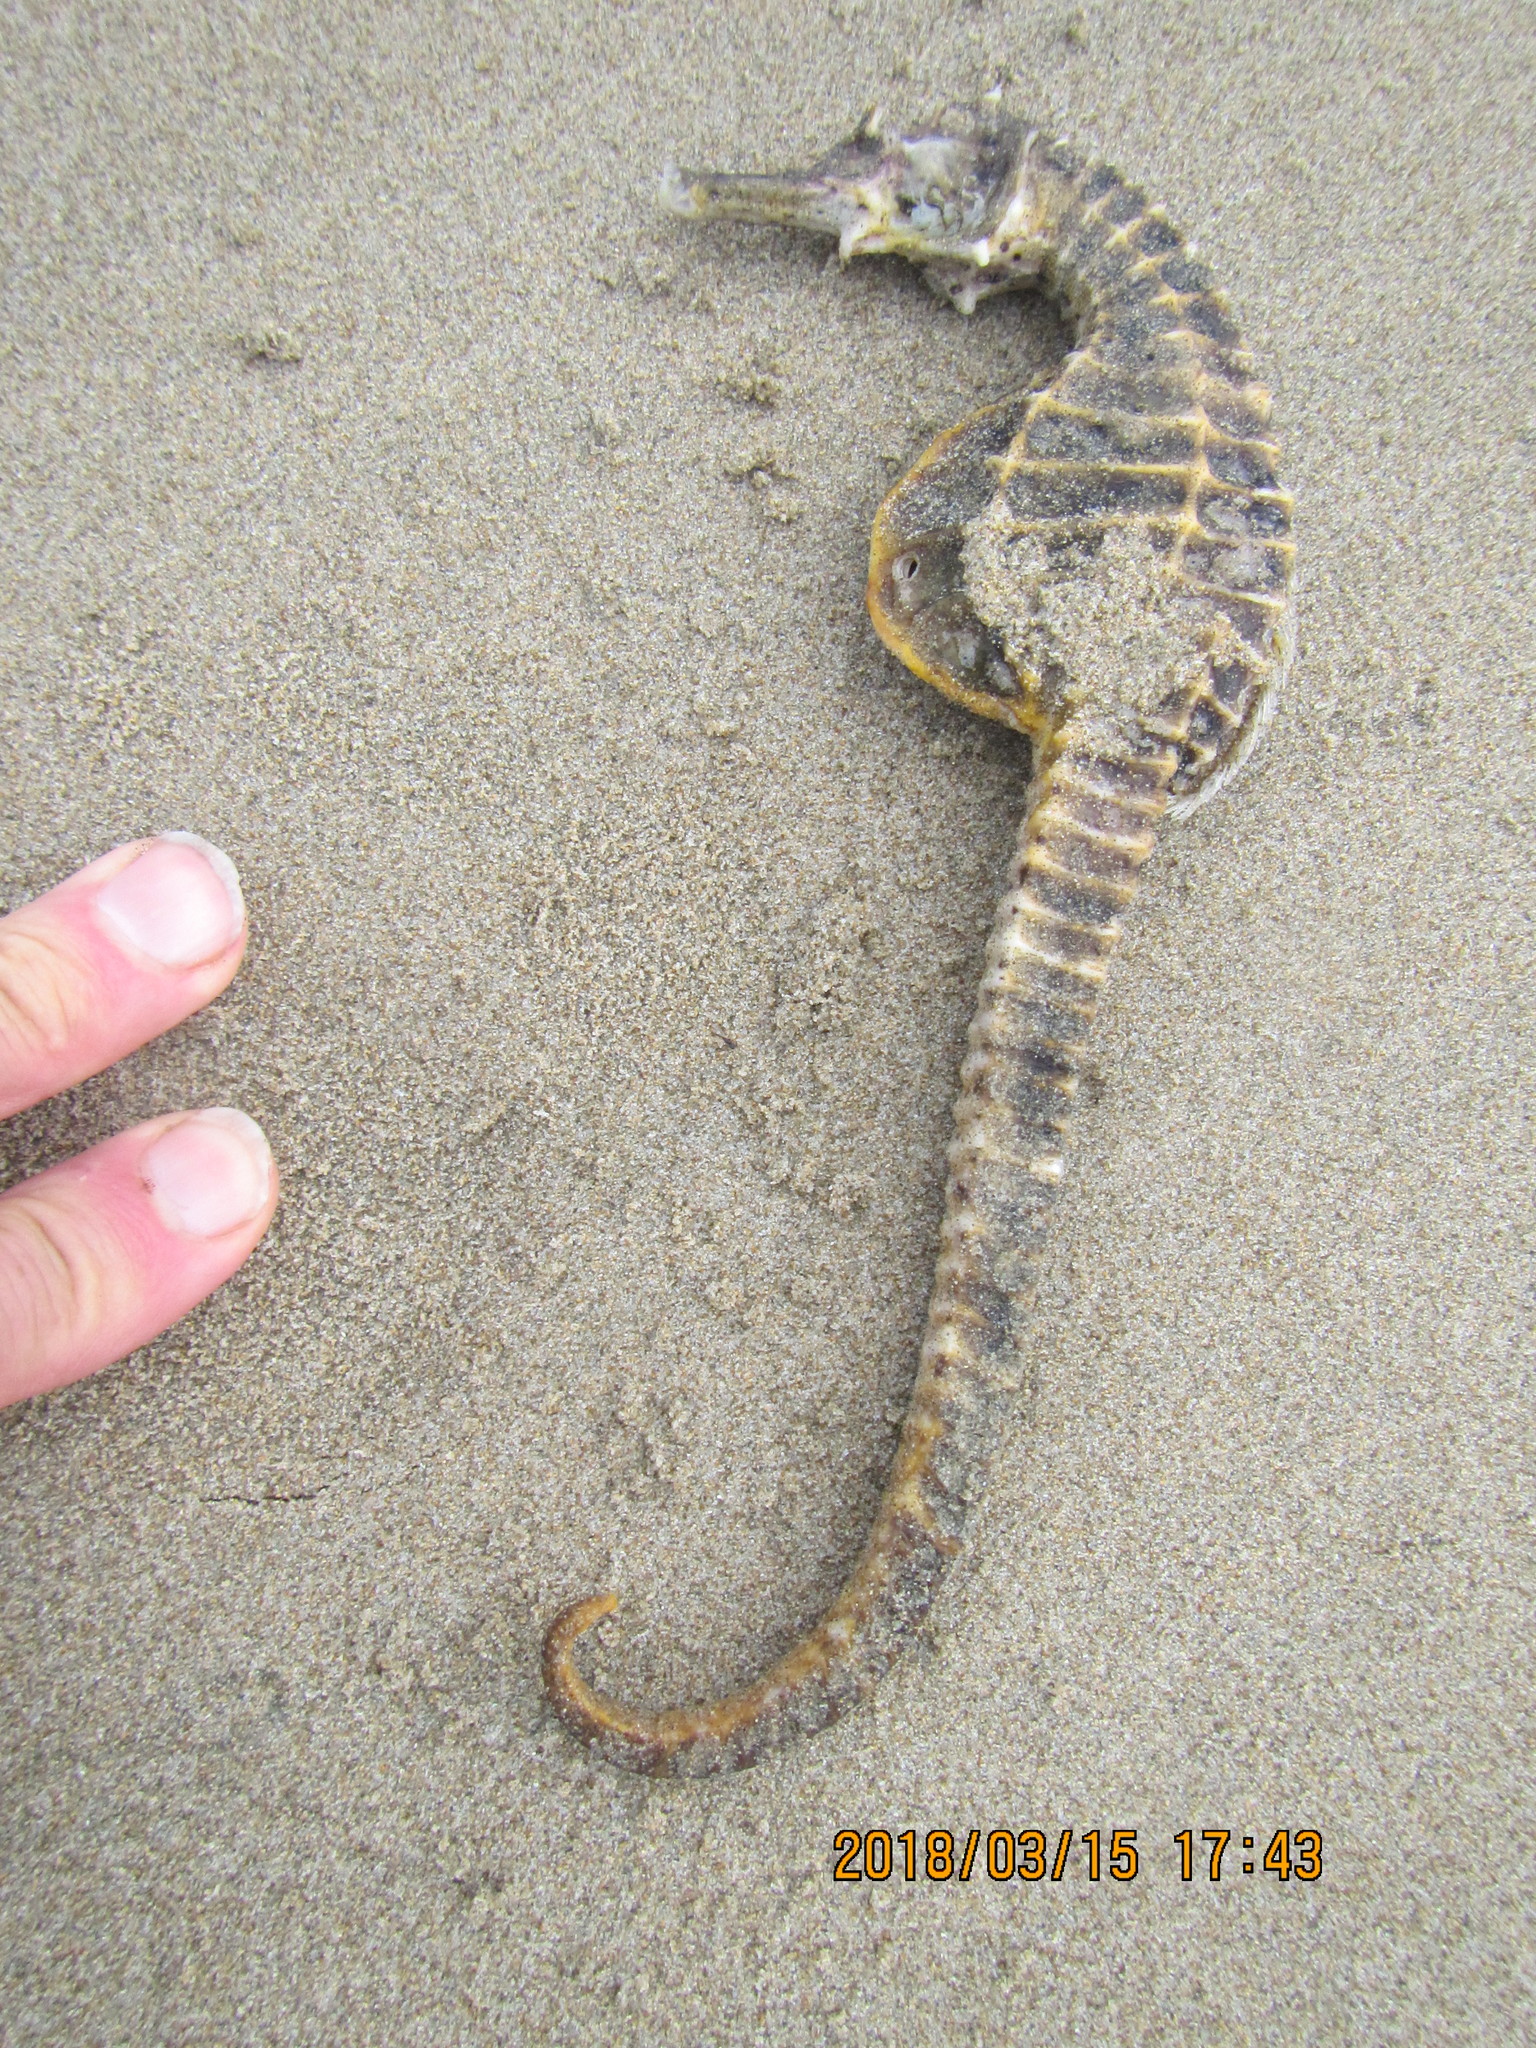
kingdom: Animalia
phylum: Chordata
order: Syngnathiformes
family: Syngnathidae
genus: Hippocampus
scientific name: Hippocampus abdominalis
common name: Big-belly seahorse
